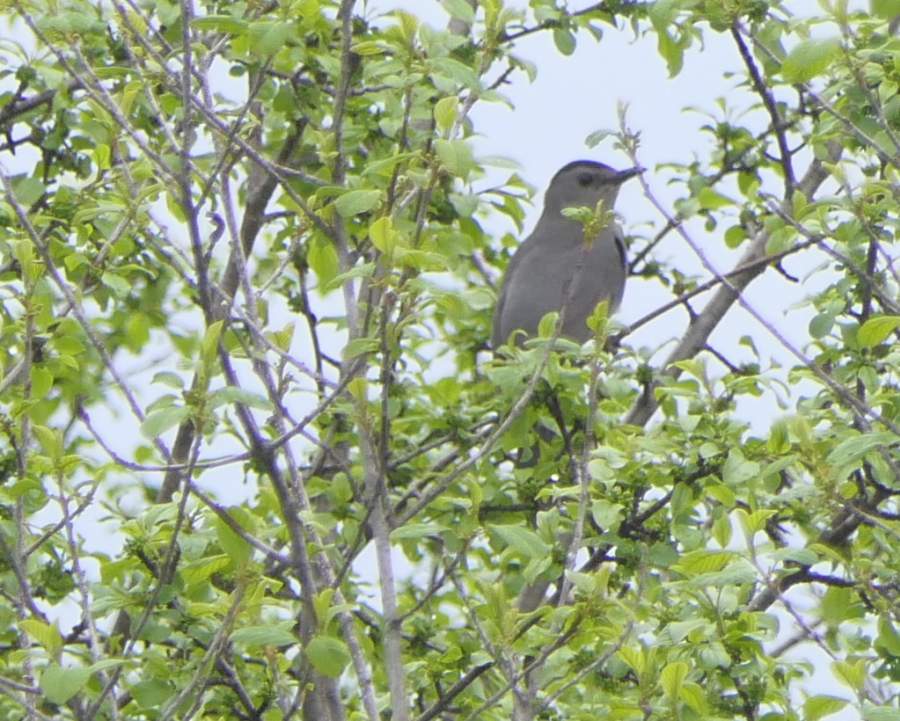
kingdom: Animalia
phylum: Chordata
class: Aves
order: Passeriformes
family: Mimidae
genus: Dumetella
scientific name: Dumetella carolinensis
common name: Gray catbird
